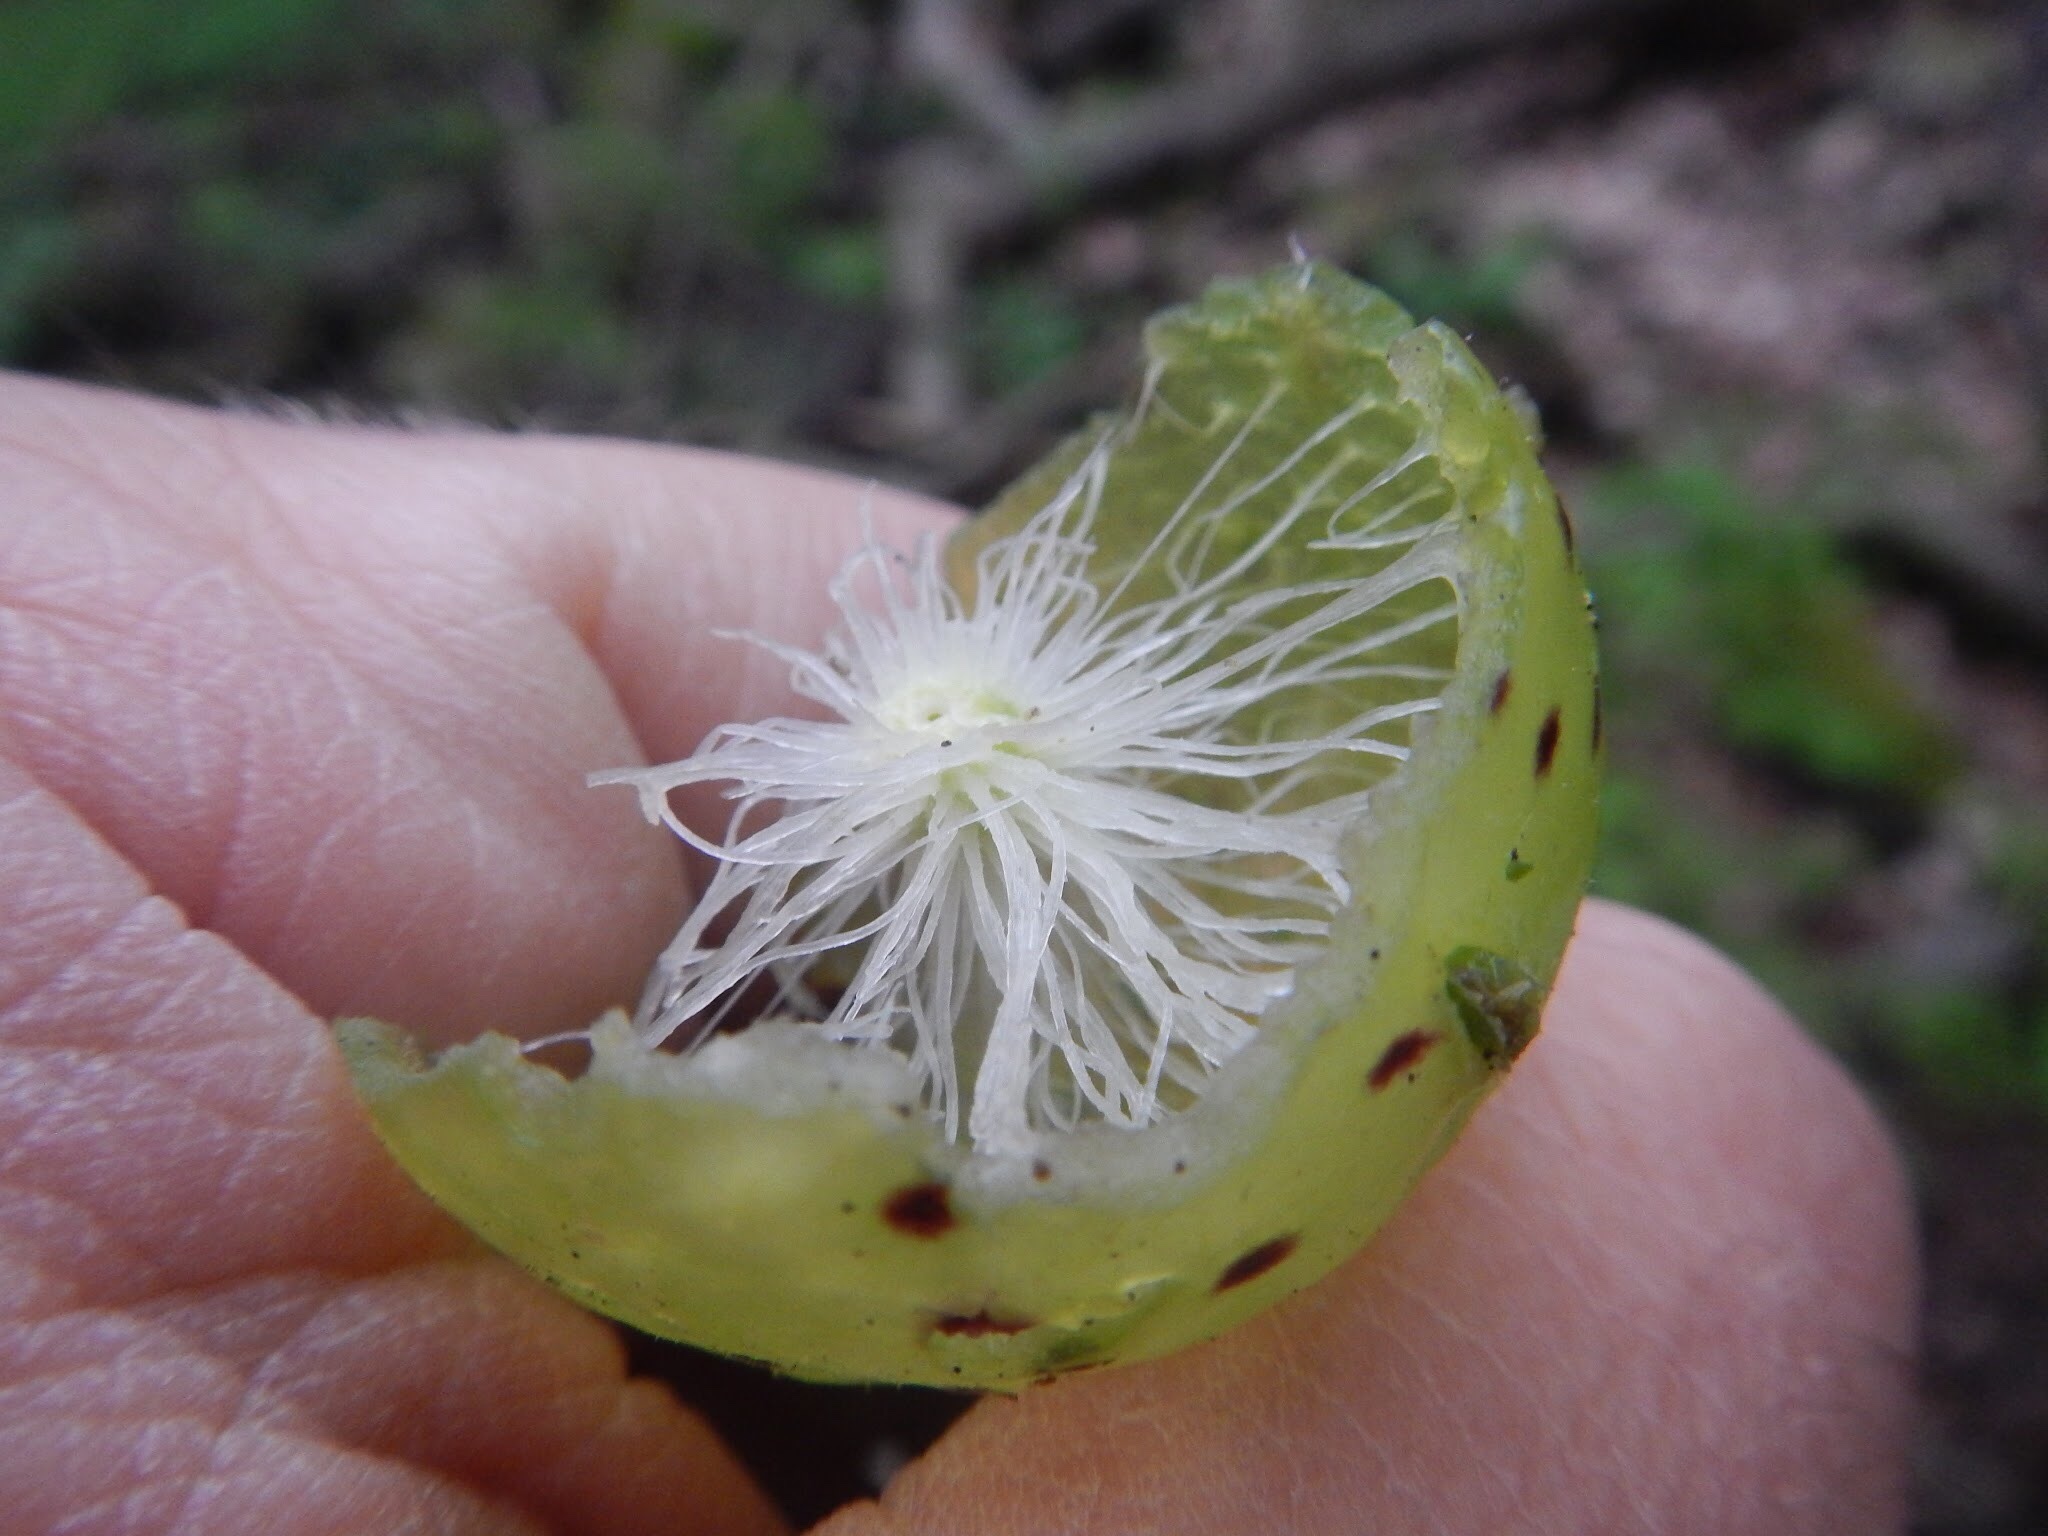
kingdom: Animalia
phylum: Arthropoda
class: Insecta
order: Hymenoptera
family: Cynipidae
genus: Amphibolips
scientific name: Amphibolips
